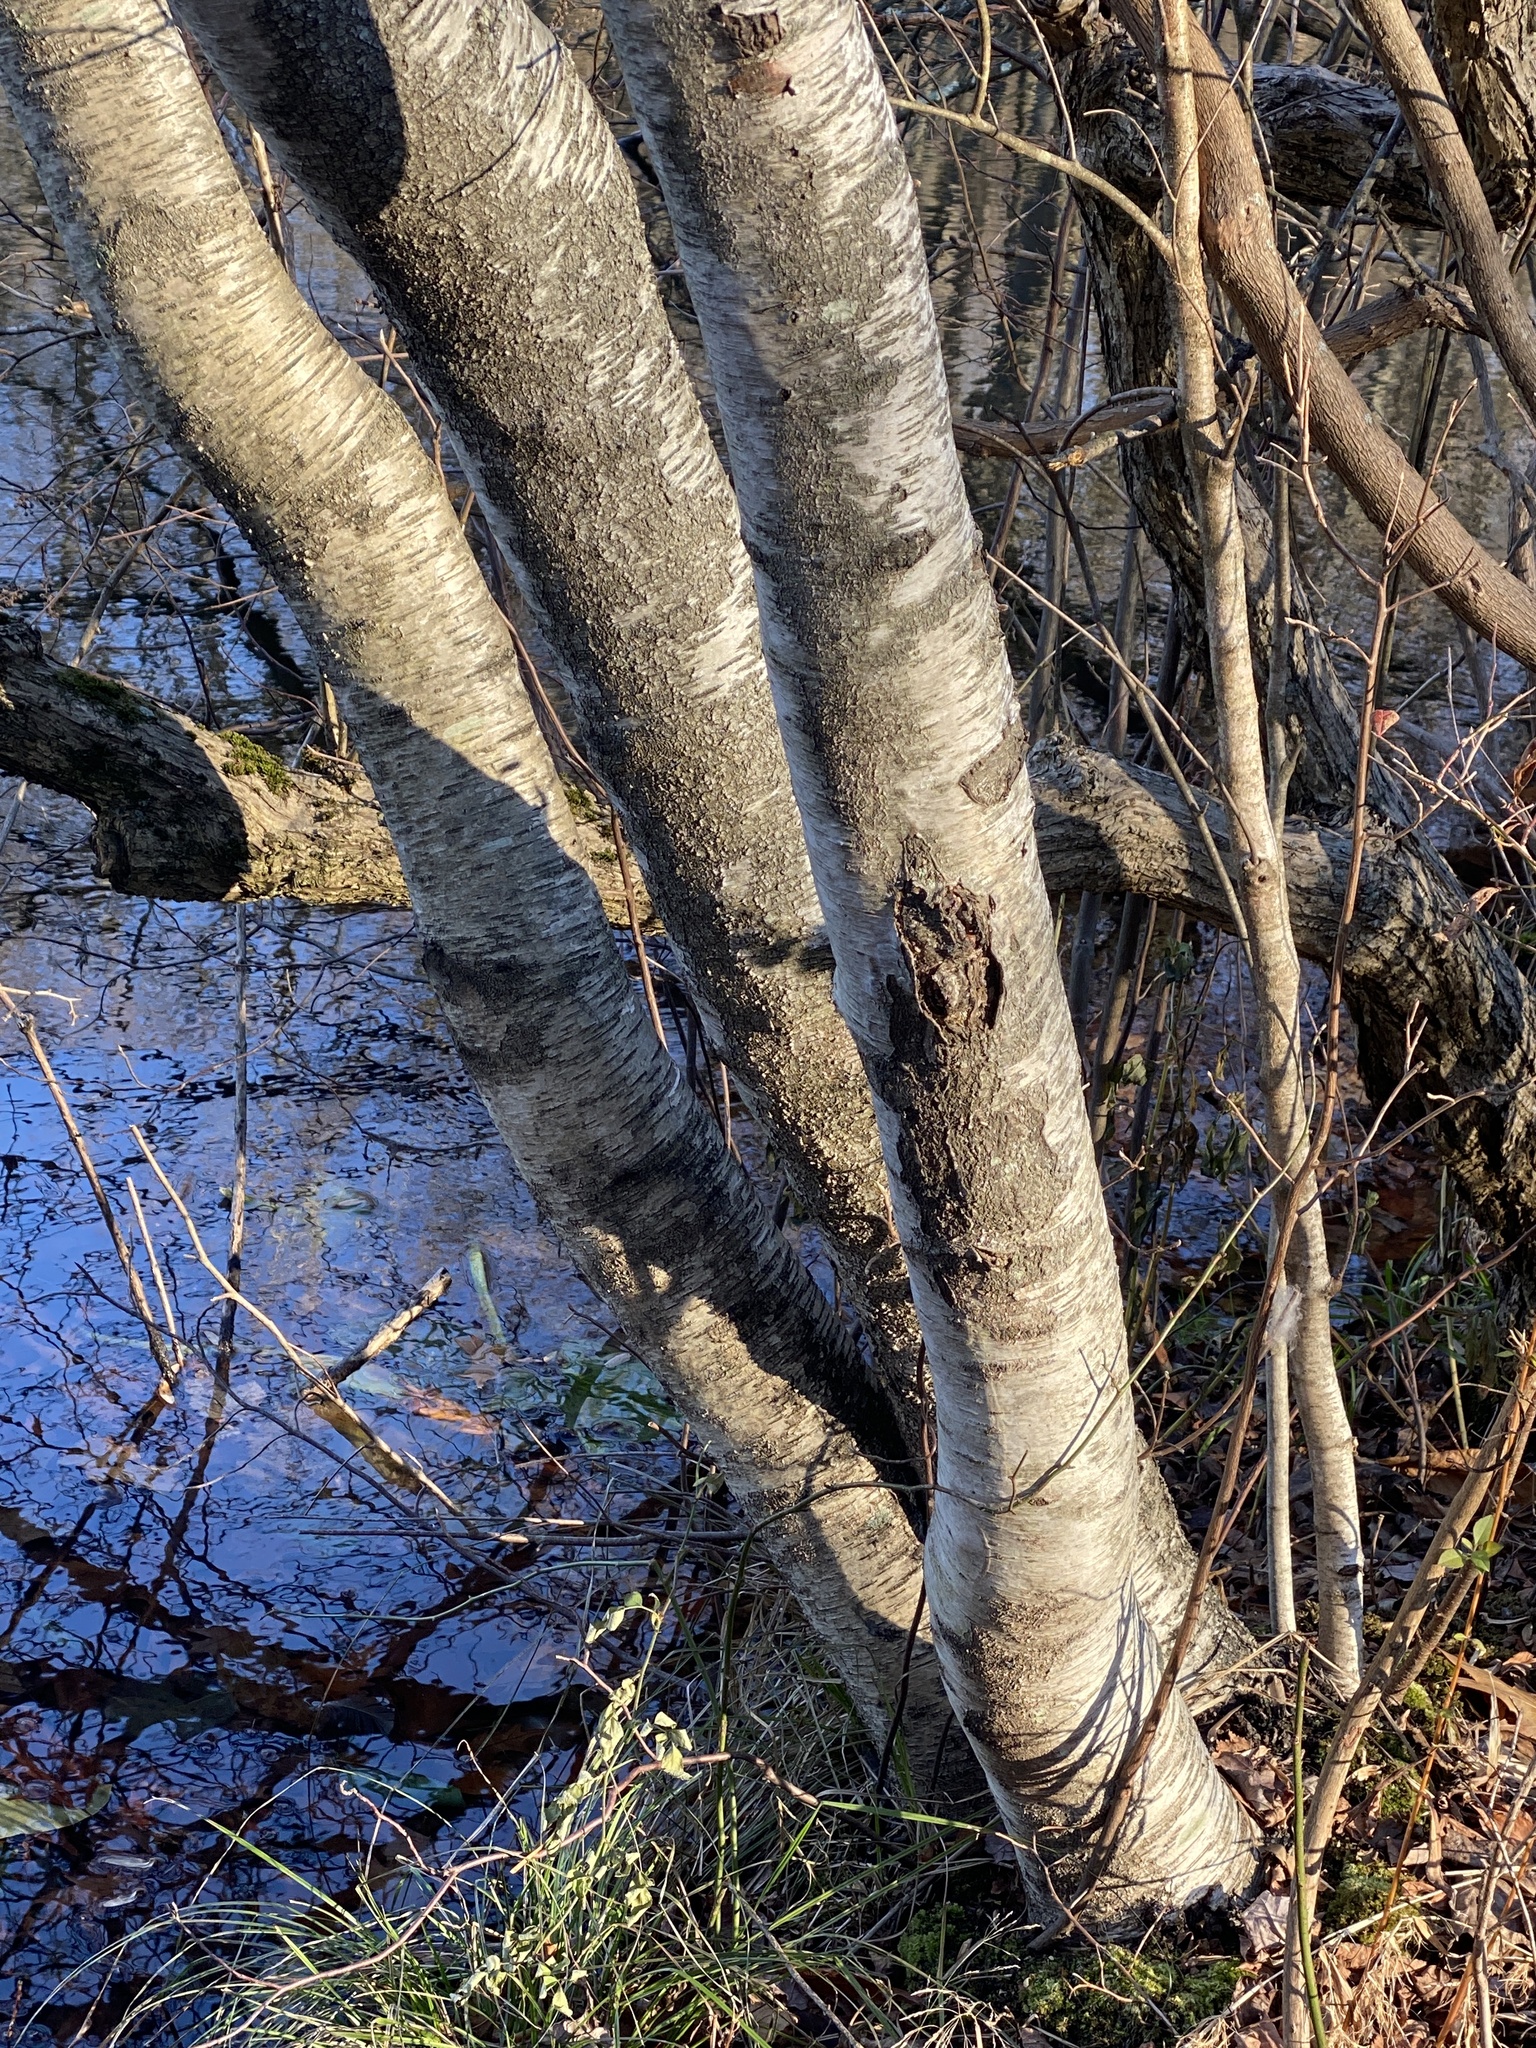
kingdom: Plantae
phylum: Tracheophyta
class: Magnoliopsida
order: Fagales
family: Betulaceae
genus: Betula
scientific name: Betula populifolia
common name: Fire birch
